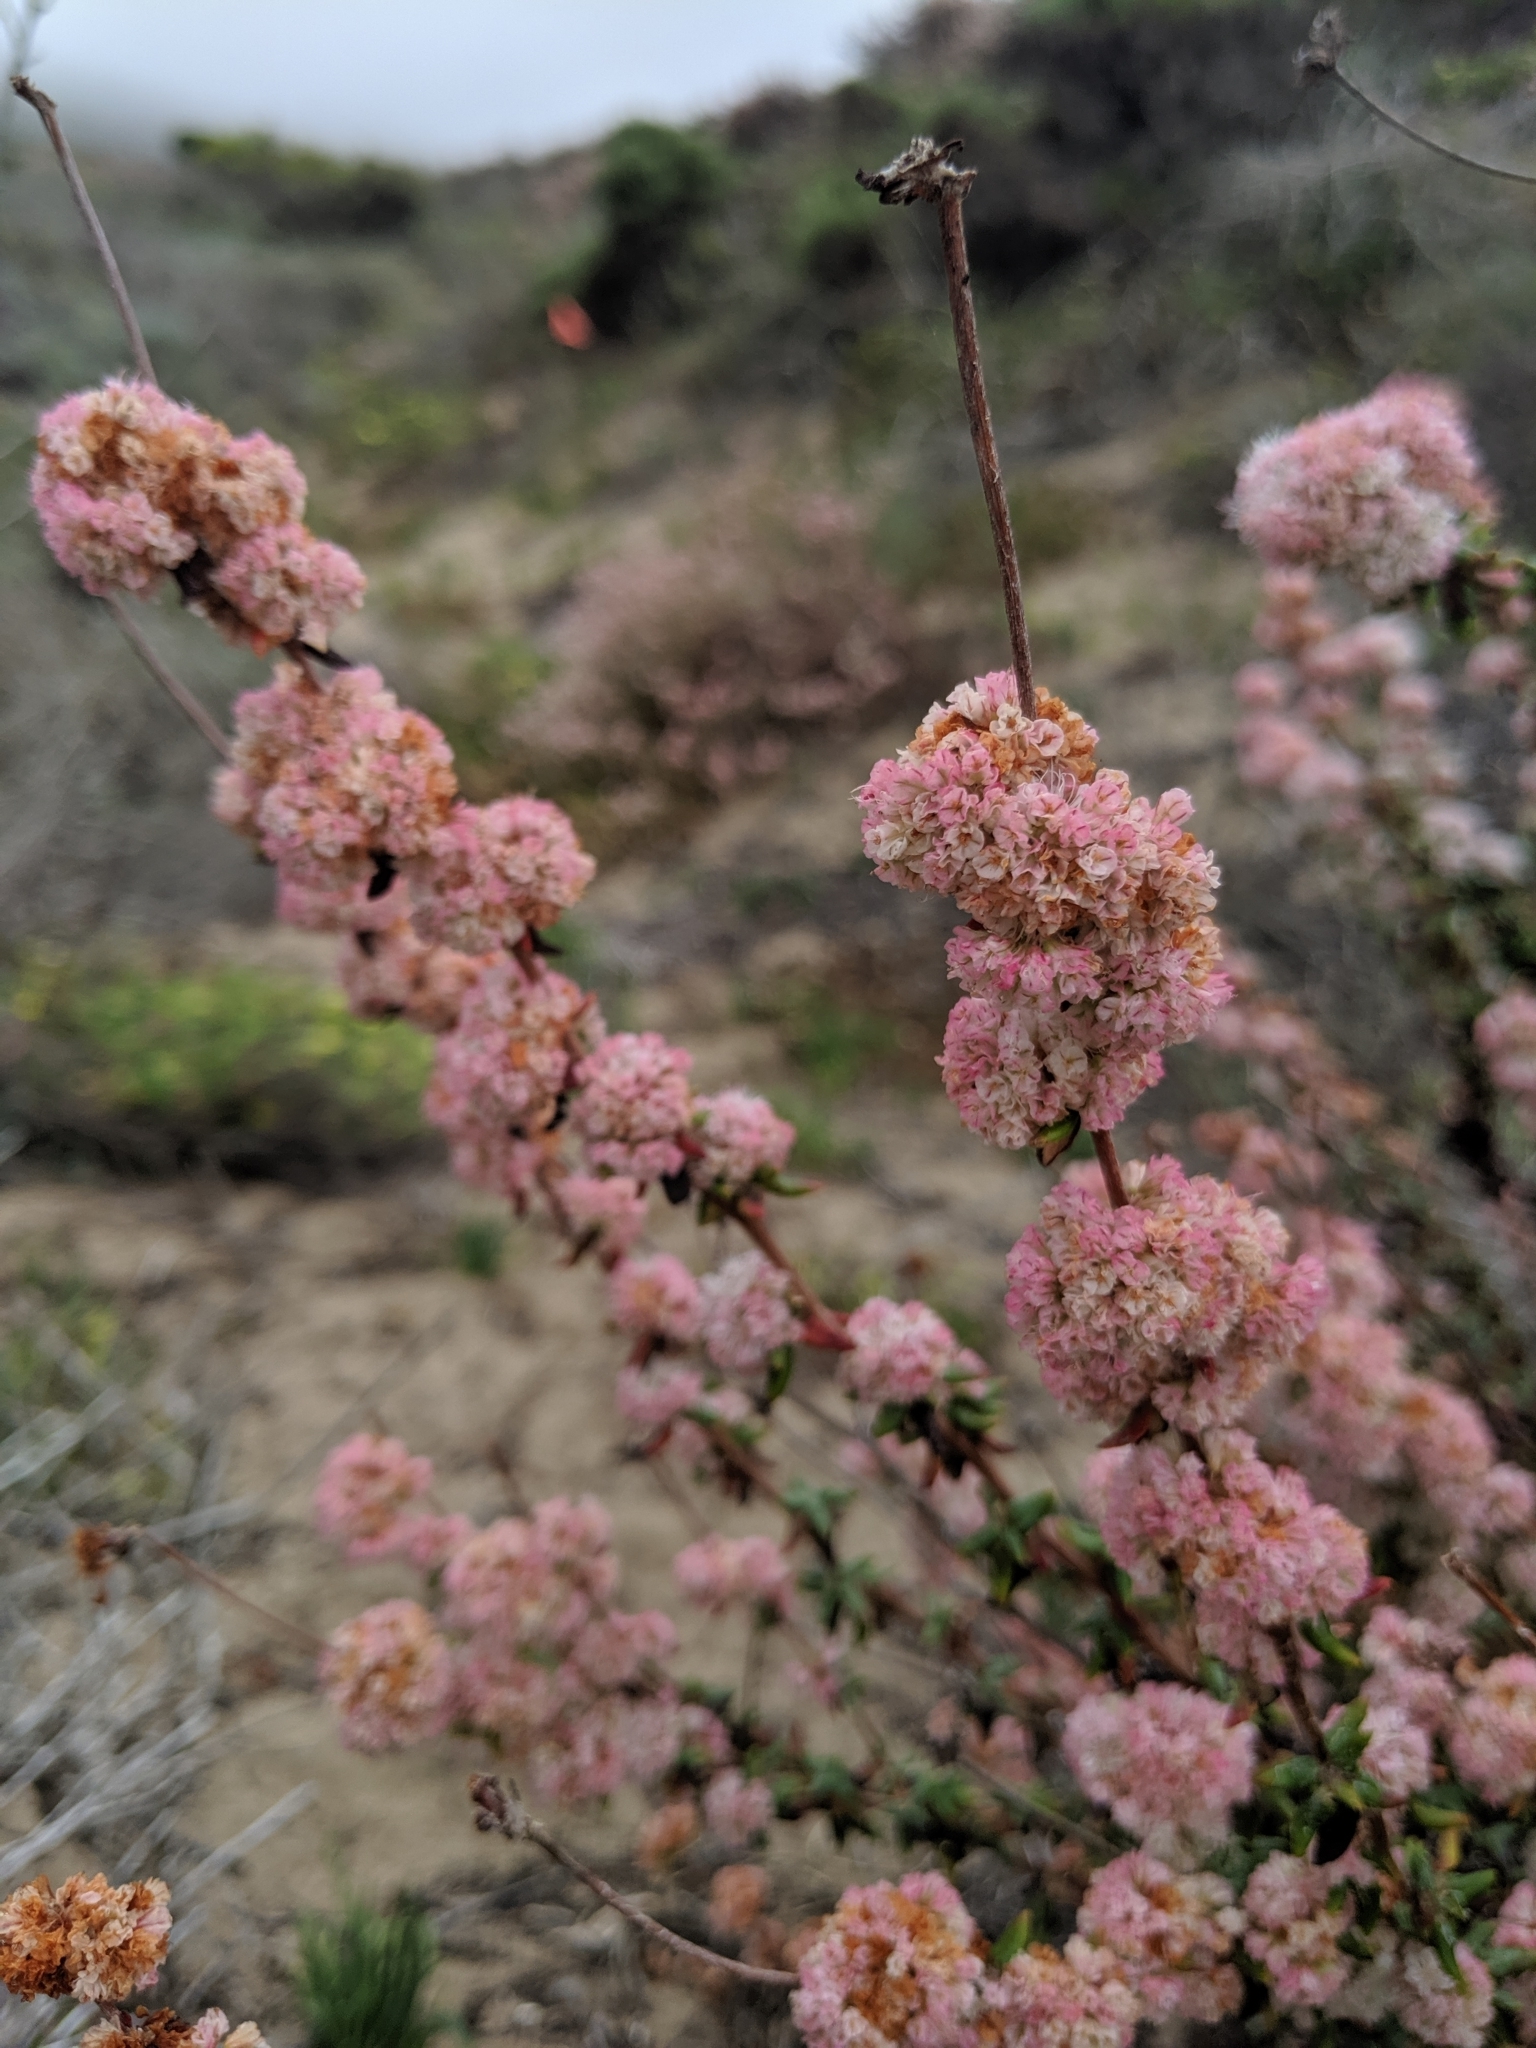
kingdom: Plantae
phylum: Tracheophyta
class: Magnoliopsida
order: Caryophyllales
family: Polygonaceae
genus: Eriogonum
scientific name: Eriogonum parvifolium
